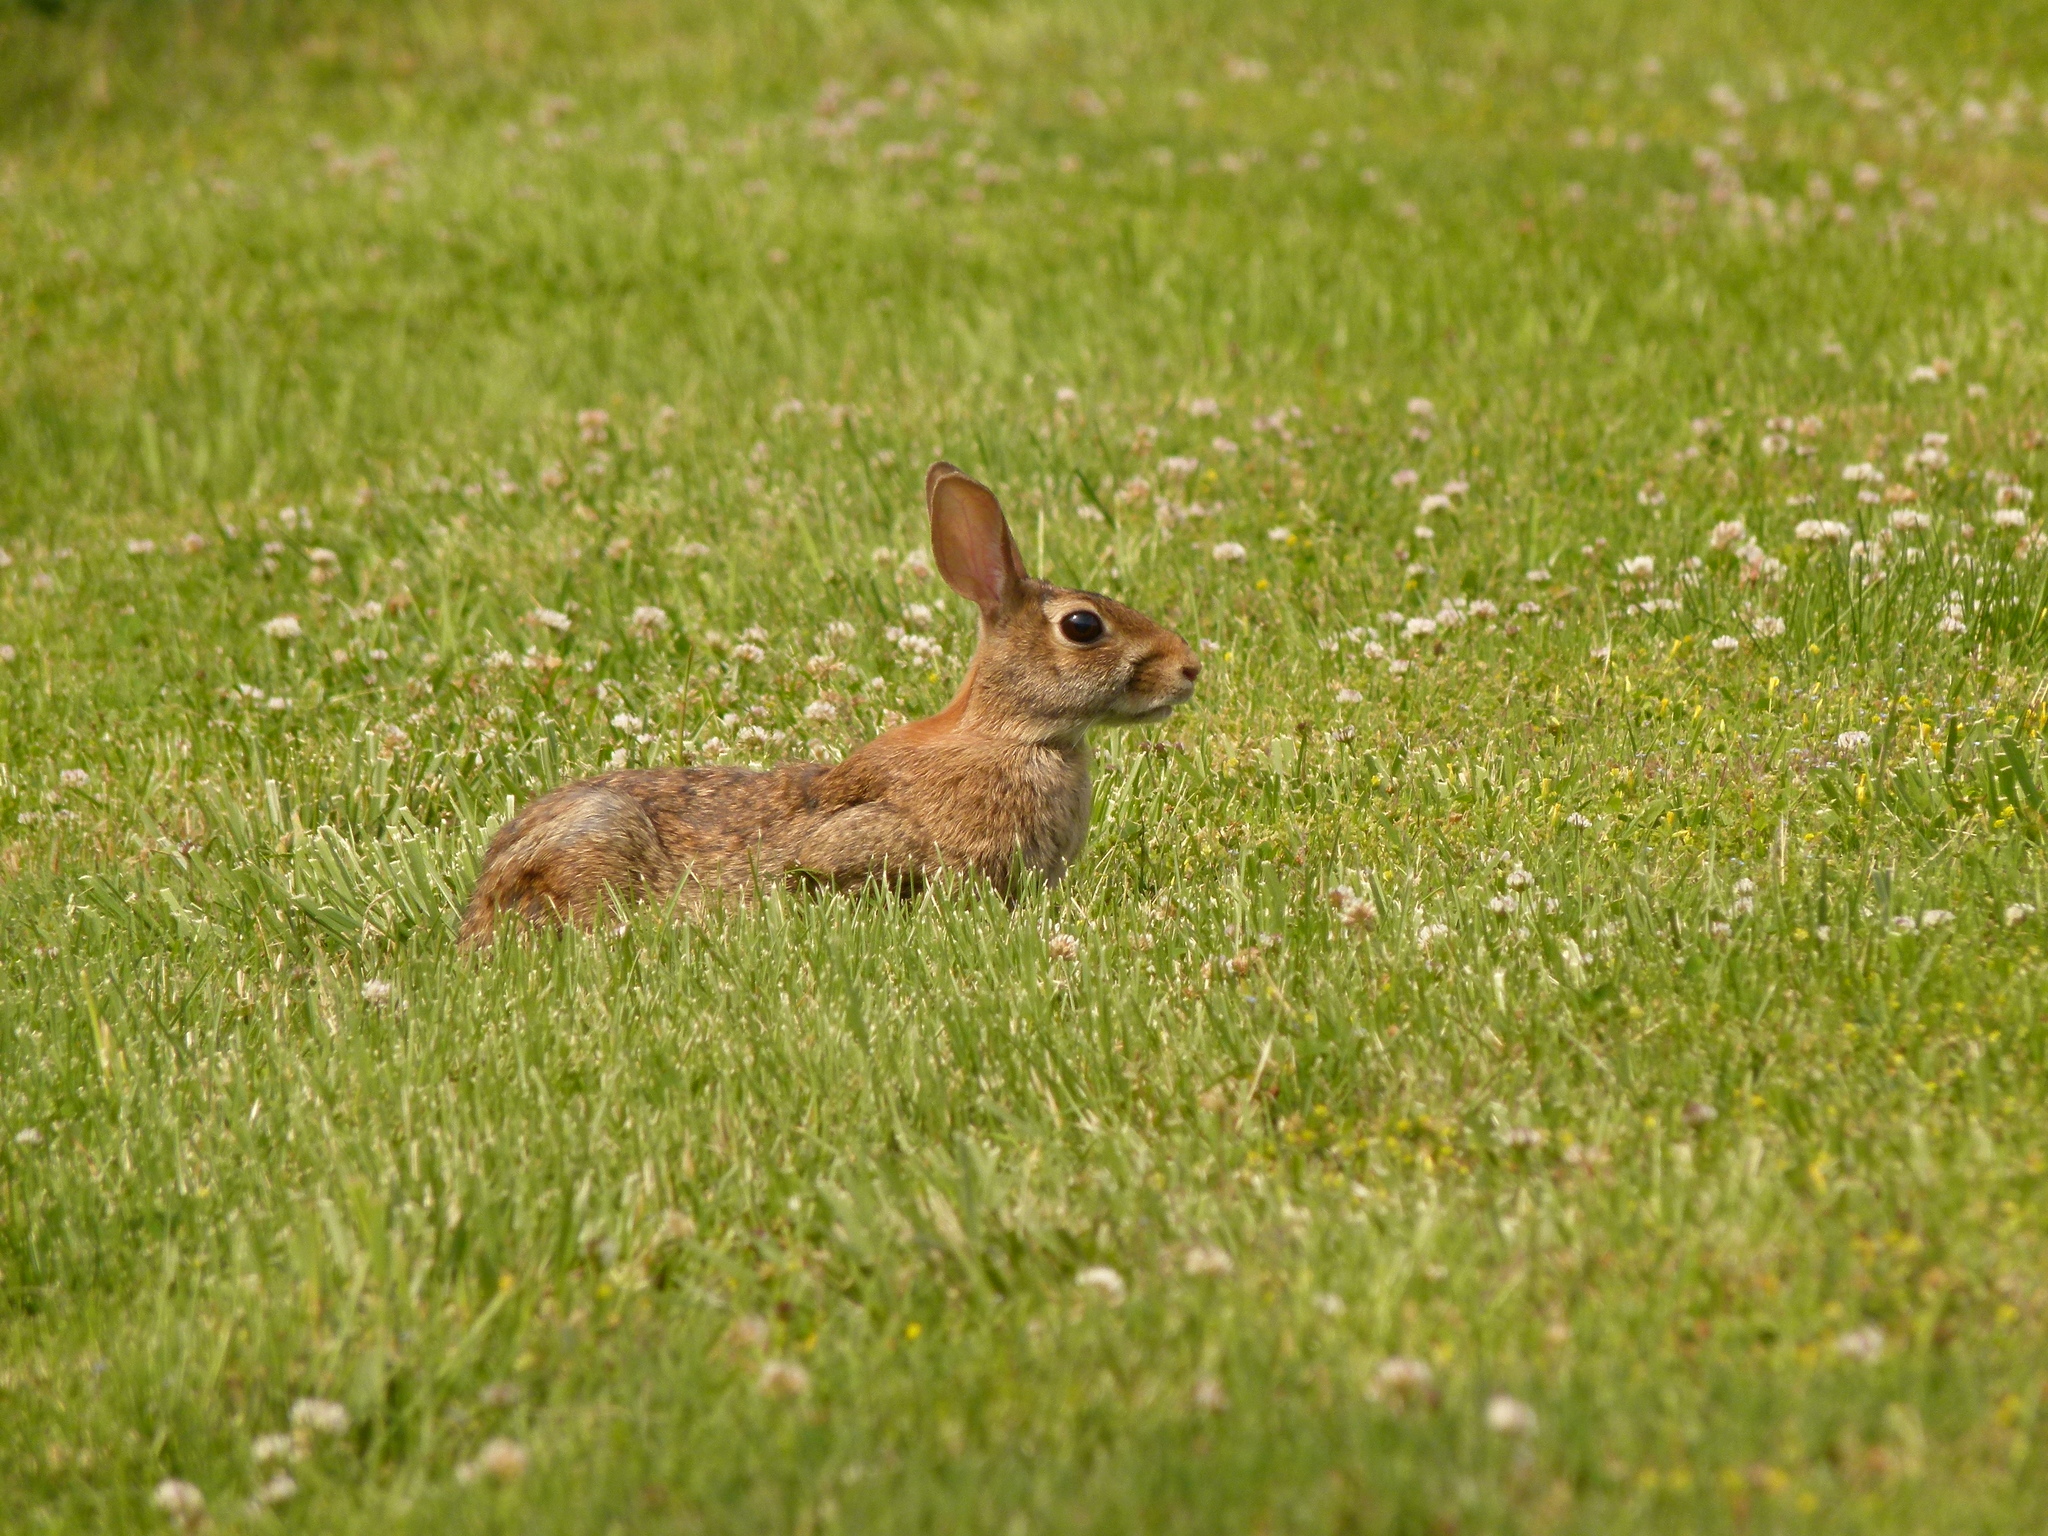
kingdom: Animalia
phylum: Chordata
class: Mammalia
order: Lagomorpha
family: Leporidae
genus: Sylvilagus
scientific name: Sylvilagus floridanus
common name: Eastern cottontail
